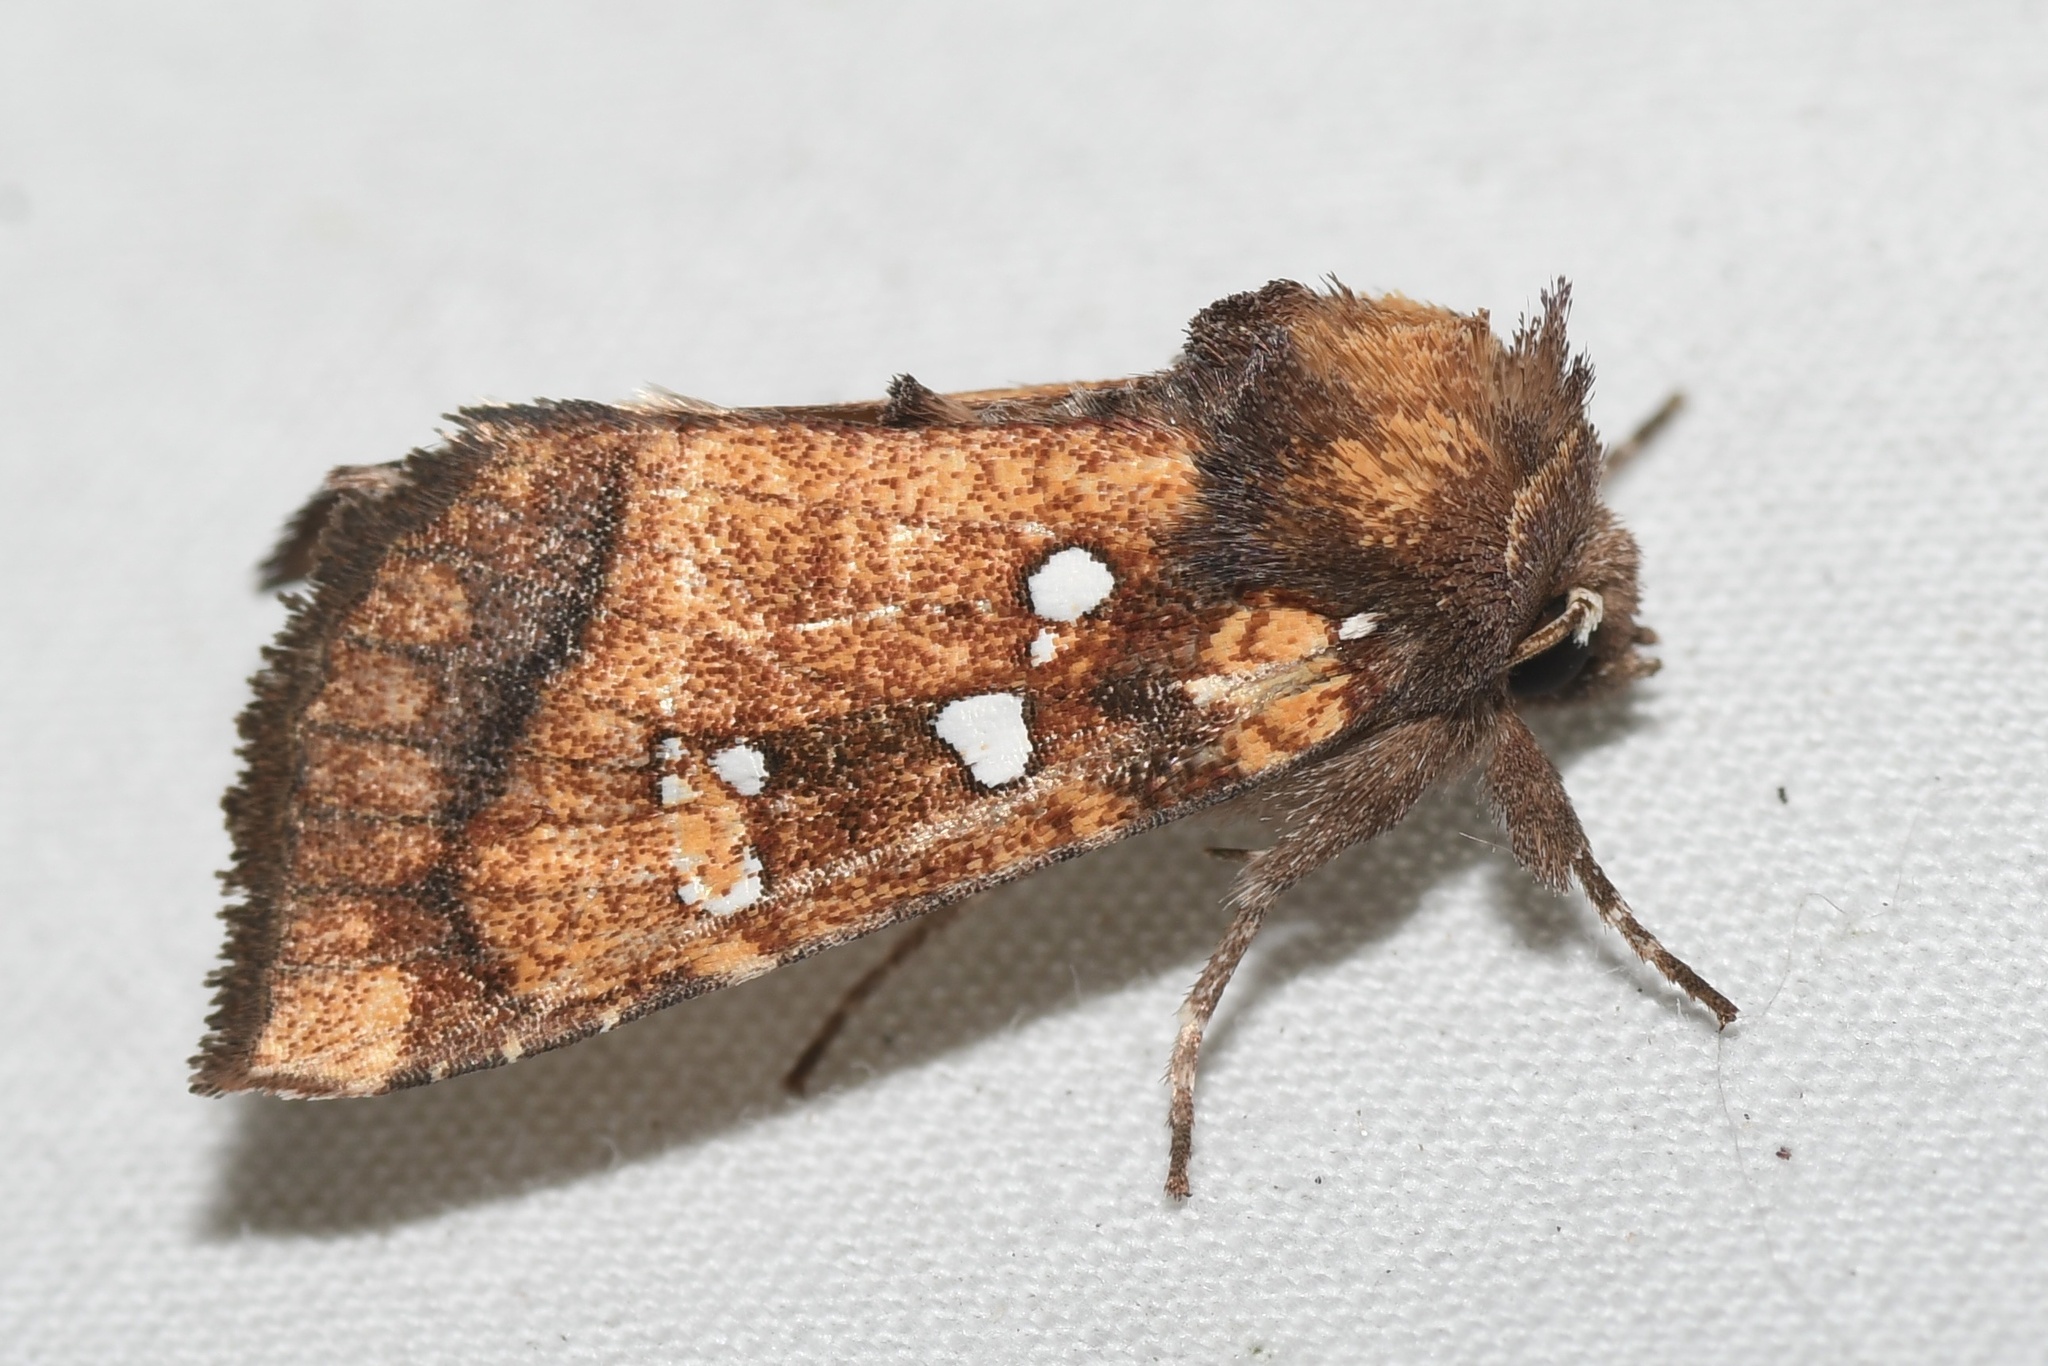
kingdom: Animalia
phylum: Arthropoda
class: Insecta
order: Lepidoptera
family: Noctuidae
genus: Papaipema
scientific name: Papaipema arctivorens
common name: Northern burdock borer moth
